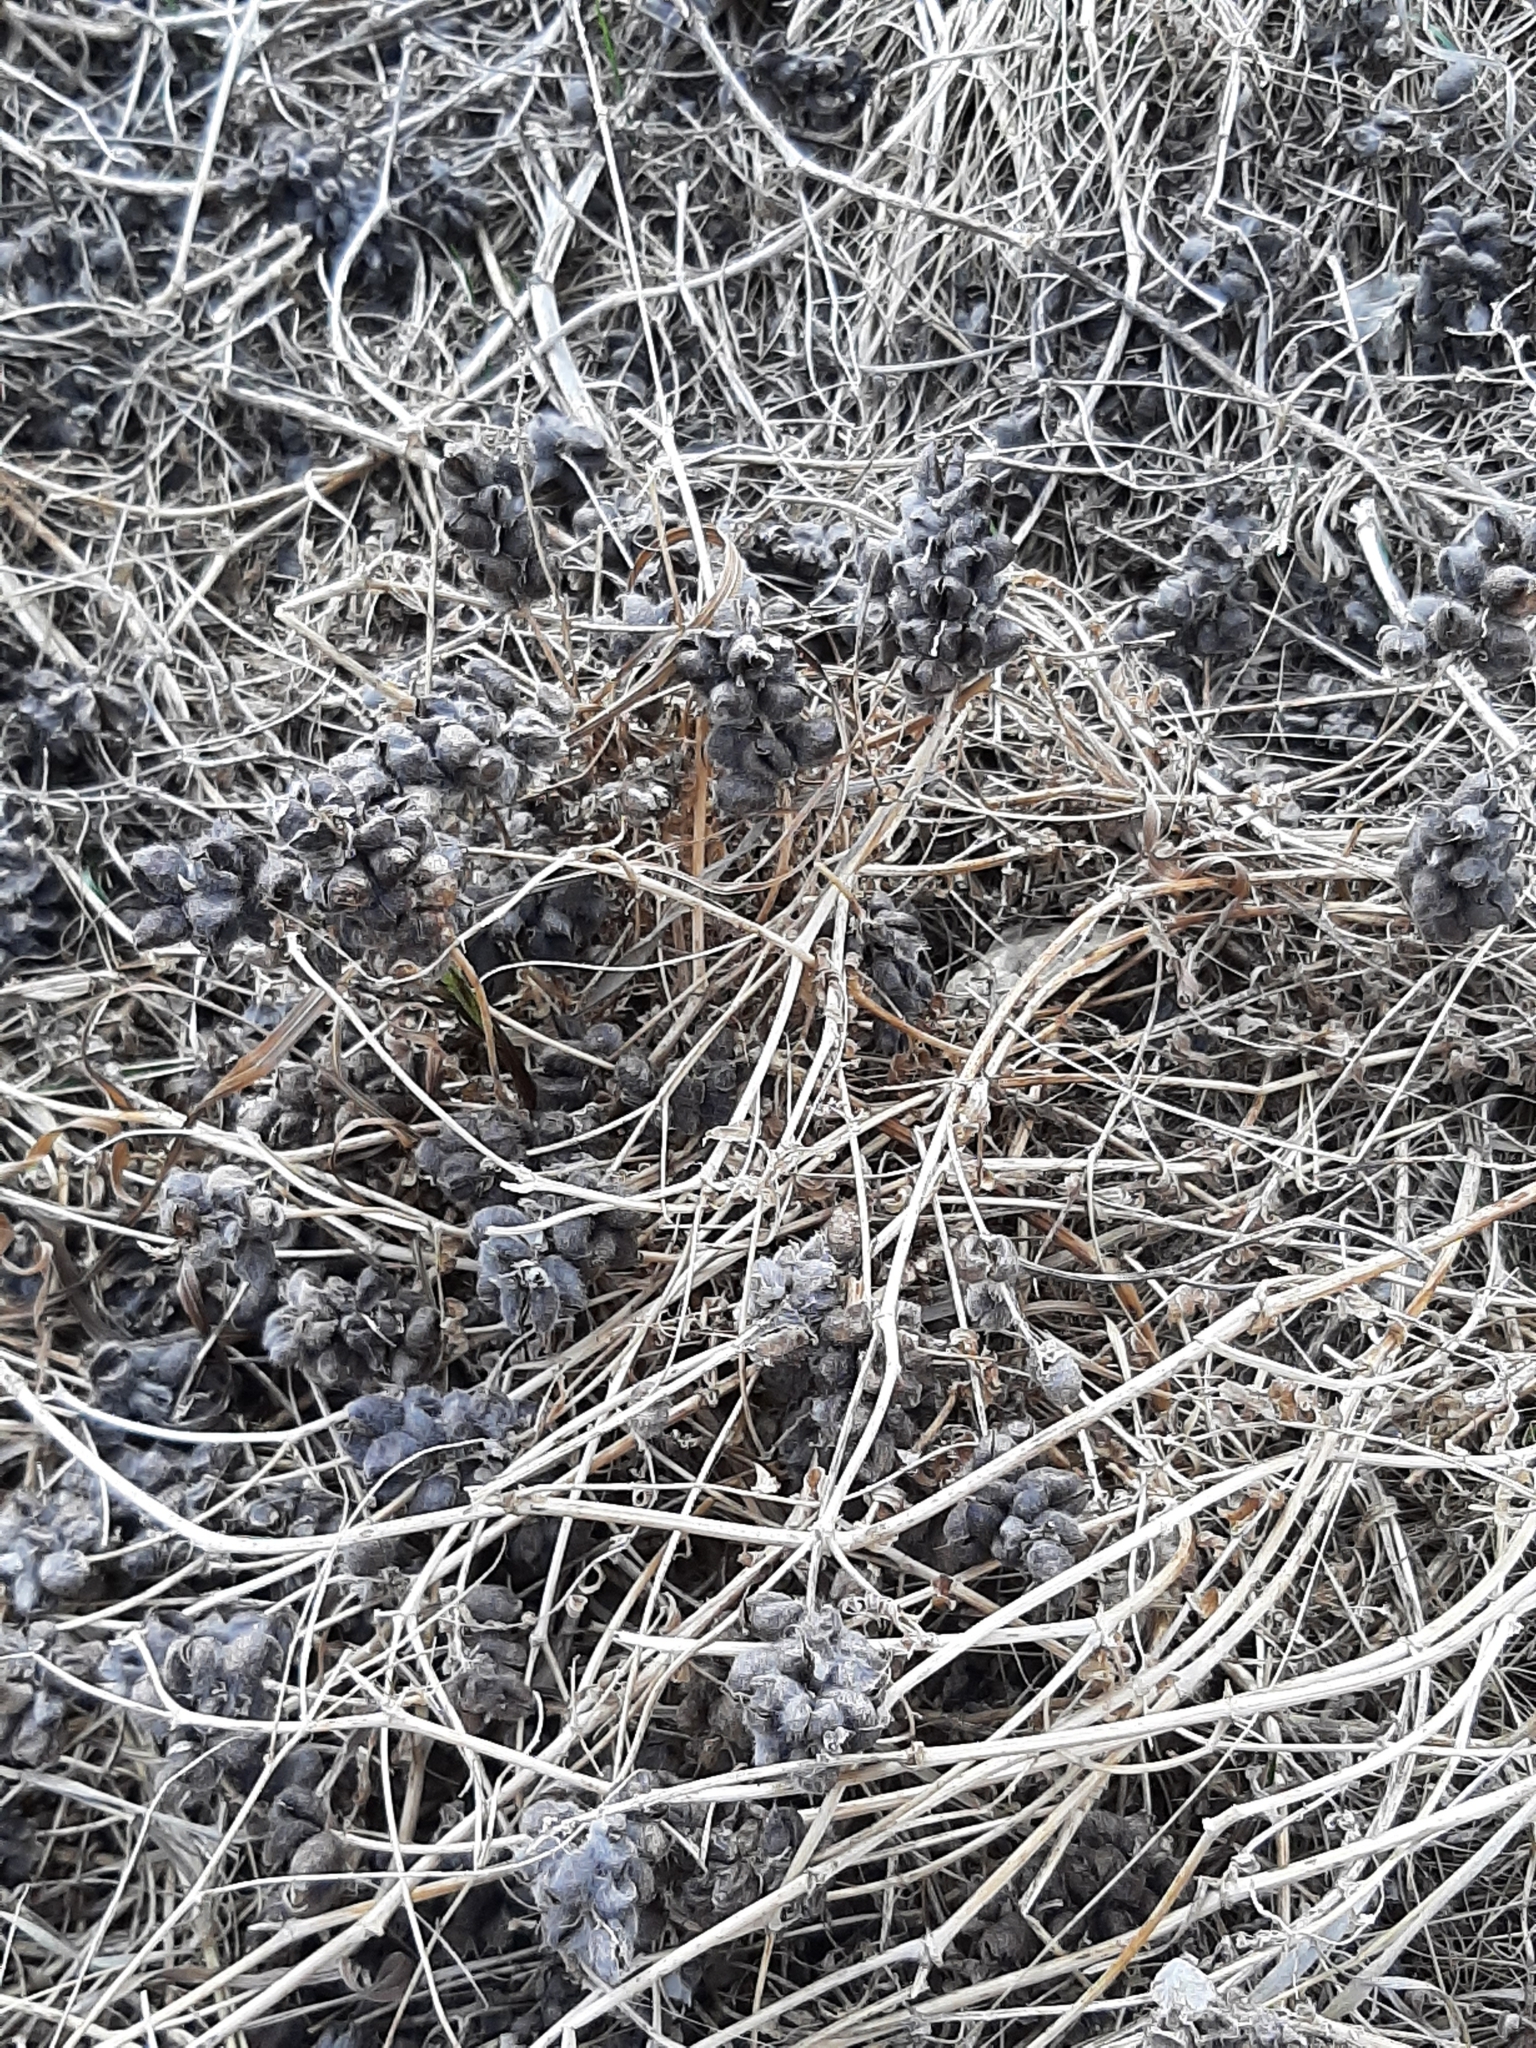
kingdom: Plantae
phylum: Tracheophyta
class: Magnoliopsida
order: Fabales
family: Fabaceae
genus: Astragalus
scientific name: Astragalus cicer
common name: Chick-pea milk-vetch
